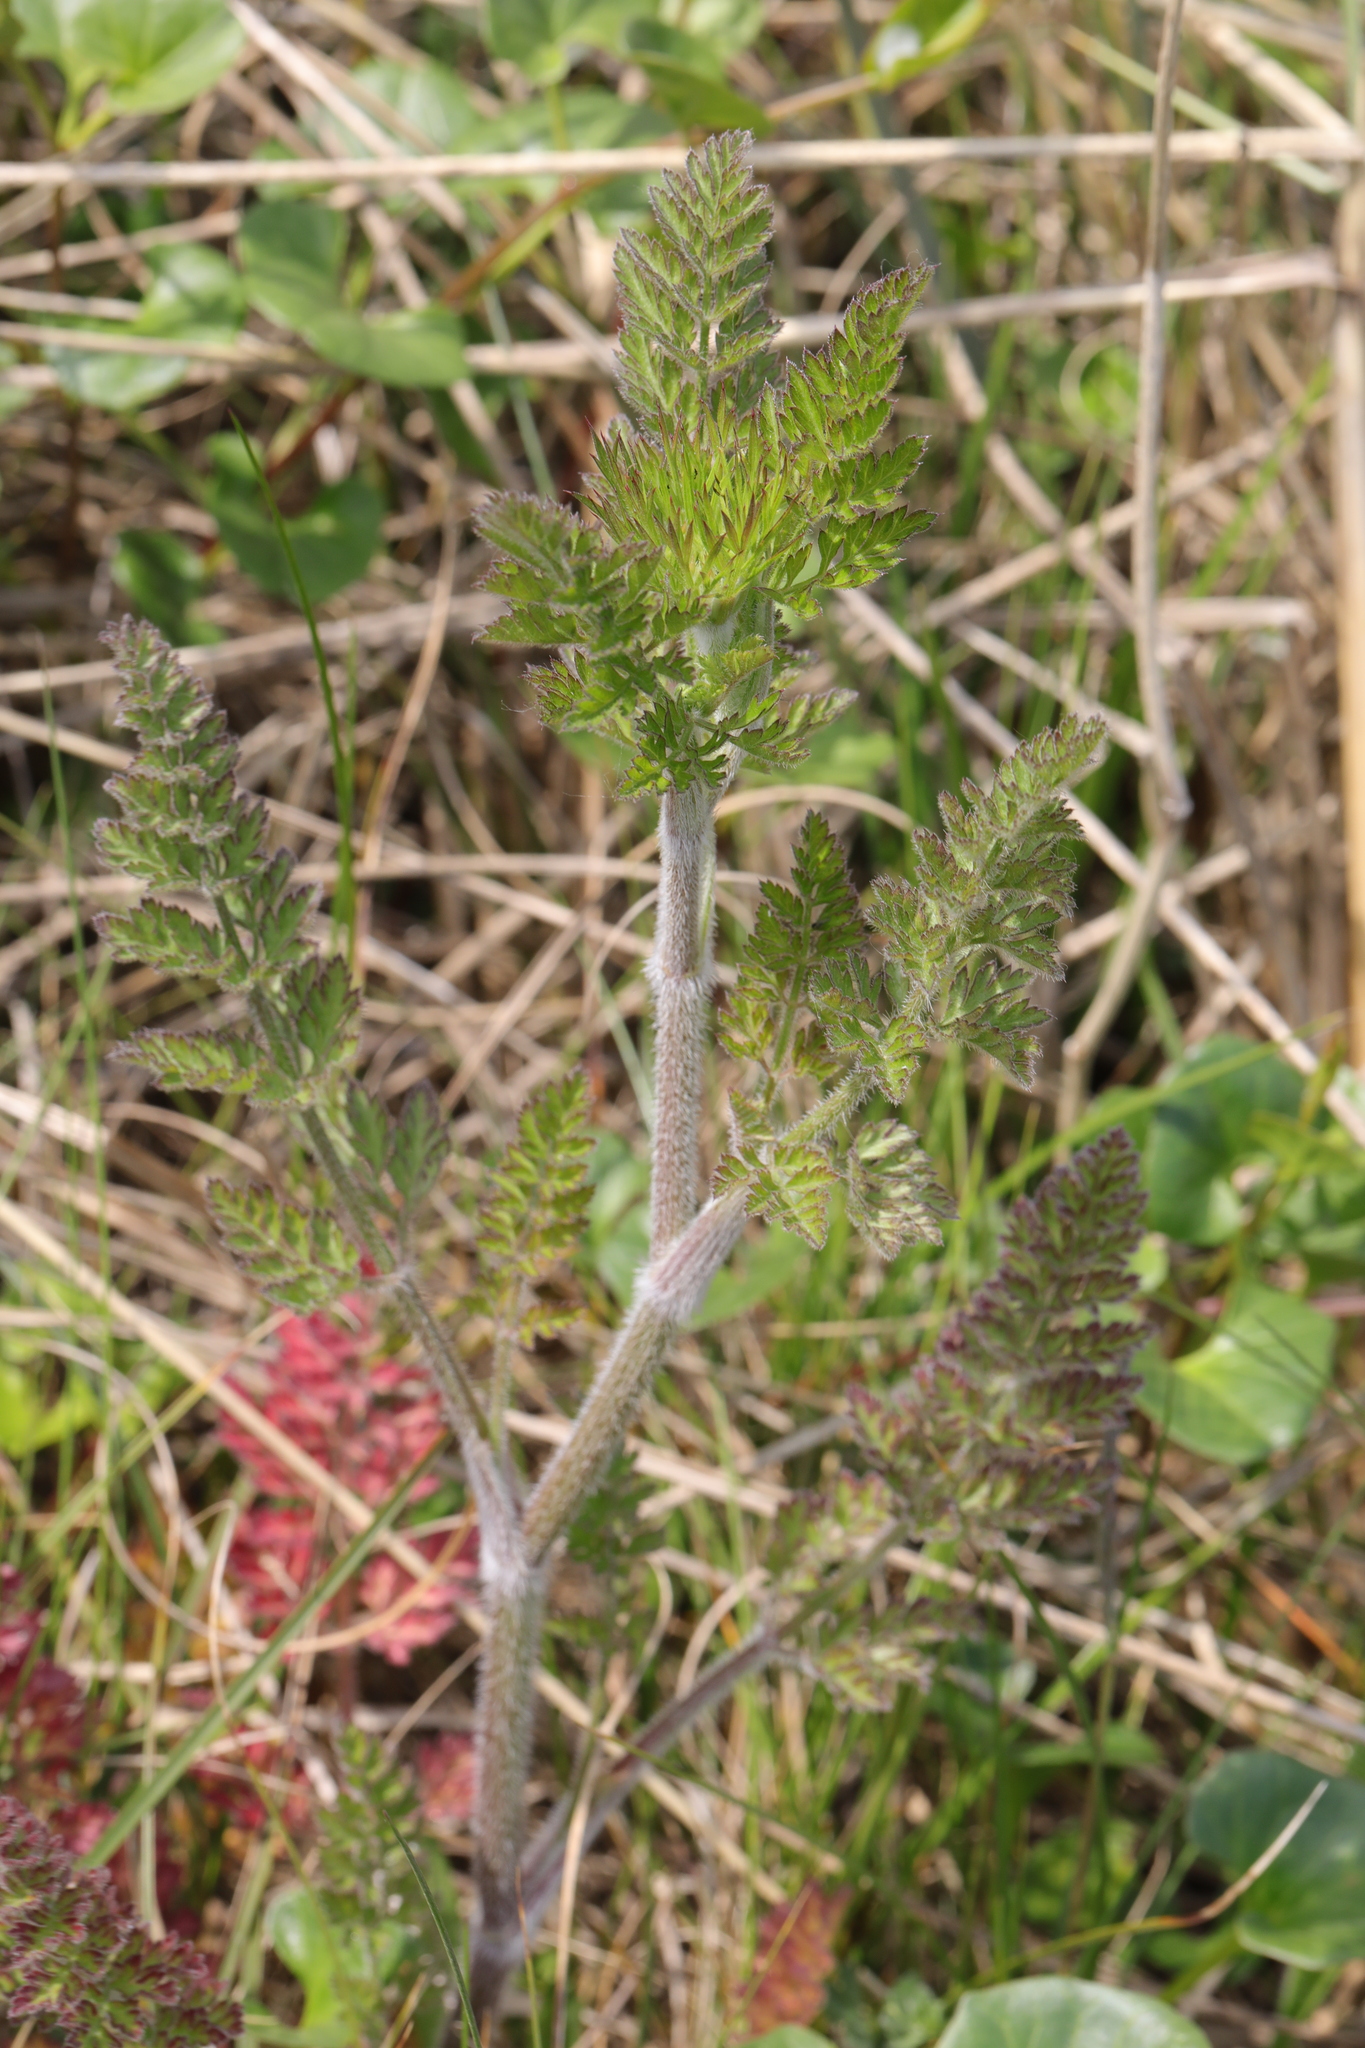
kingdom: Plantae
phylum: Tracheophyta
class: Magnoliopsida
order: Apiales
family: Apiaceae
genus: Daucus
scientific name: Daucus carota
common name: Wild carrot
